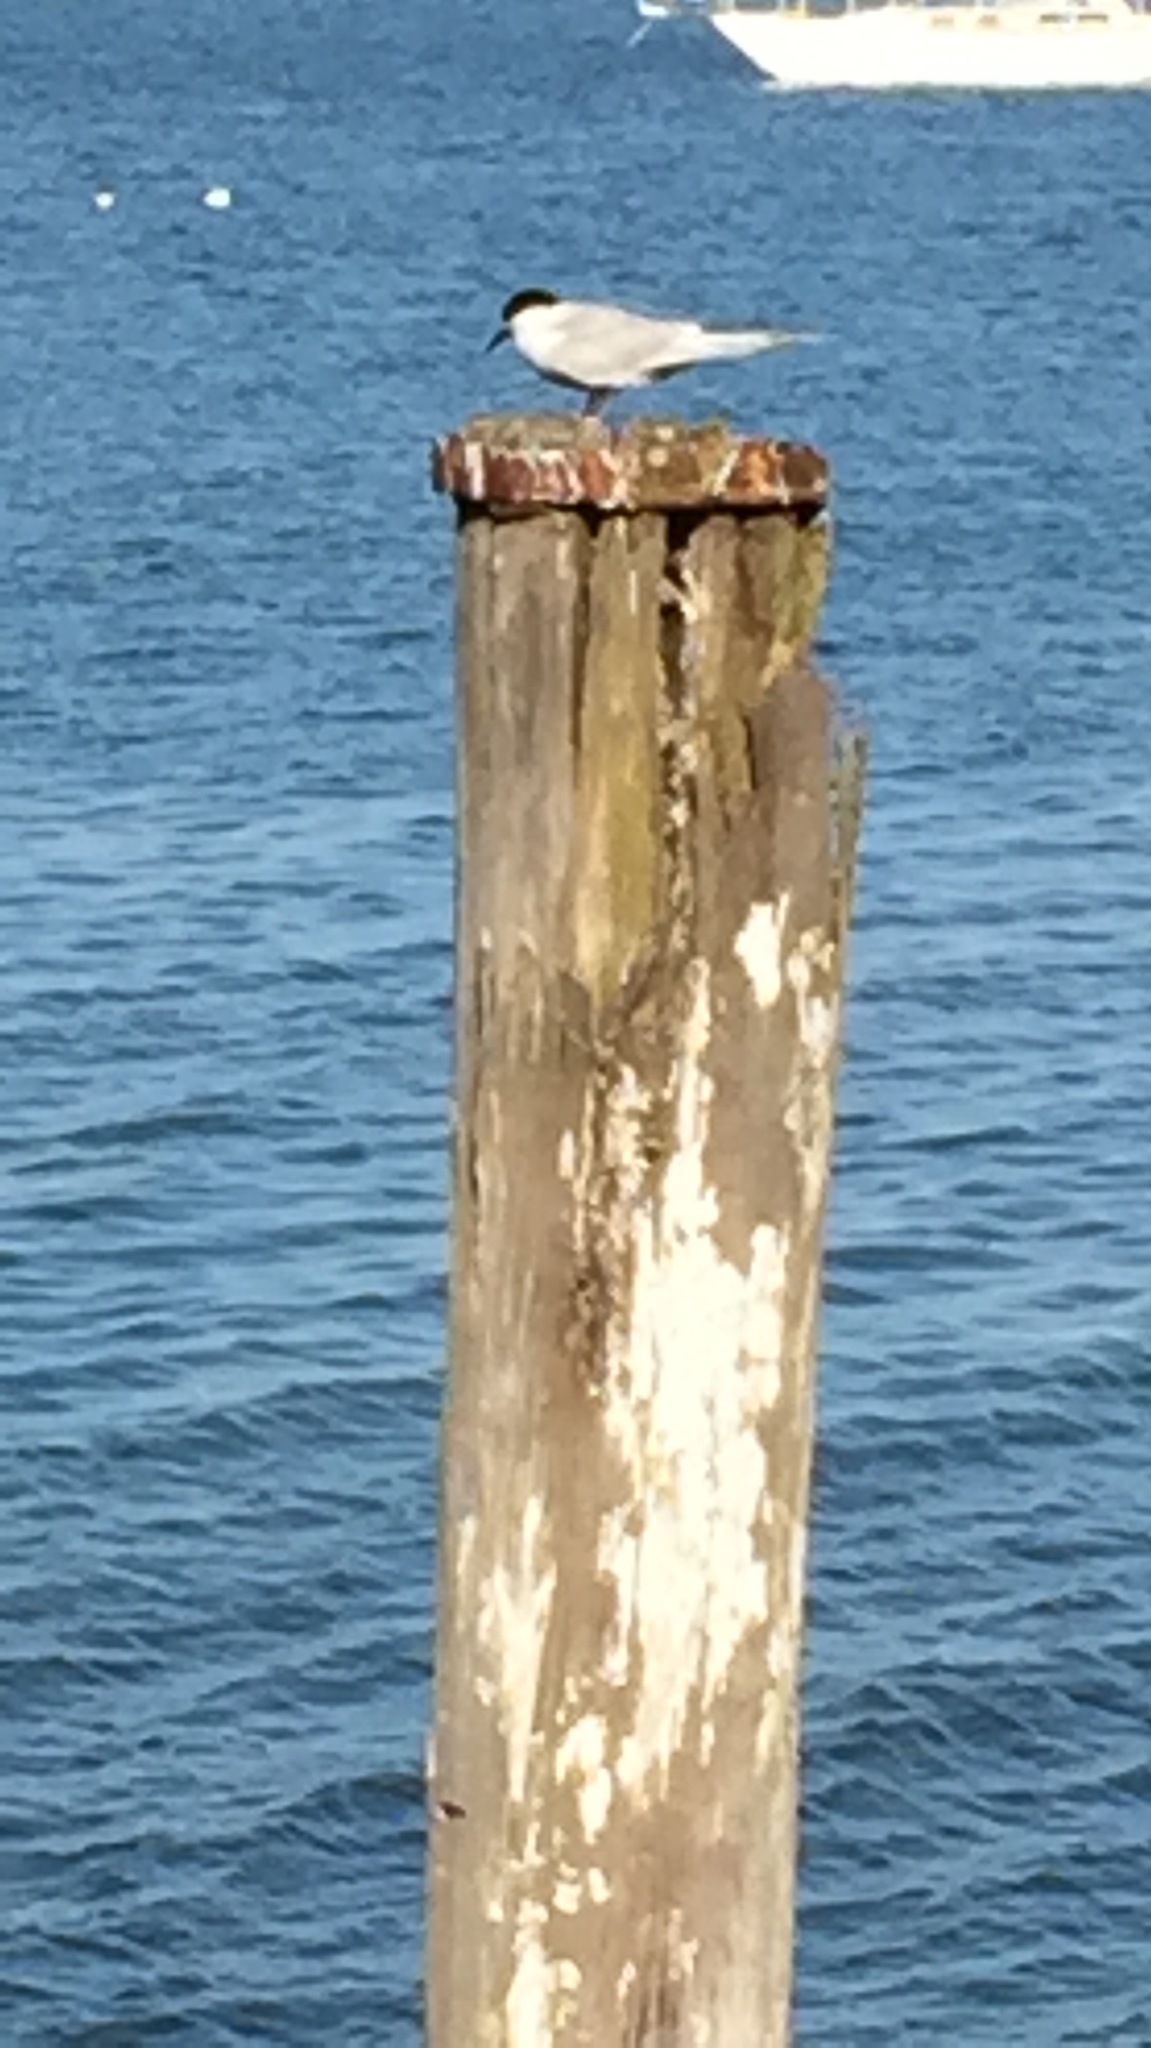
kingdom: Animalia
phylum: Chordata
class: Aves
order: Charadriiformes
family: Laridae
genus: Sterna
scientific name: Sterna striata
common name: White-fronted tern
